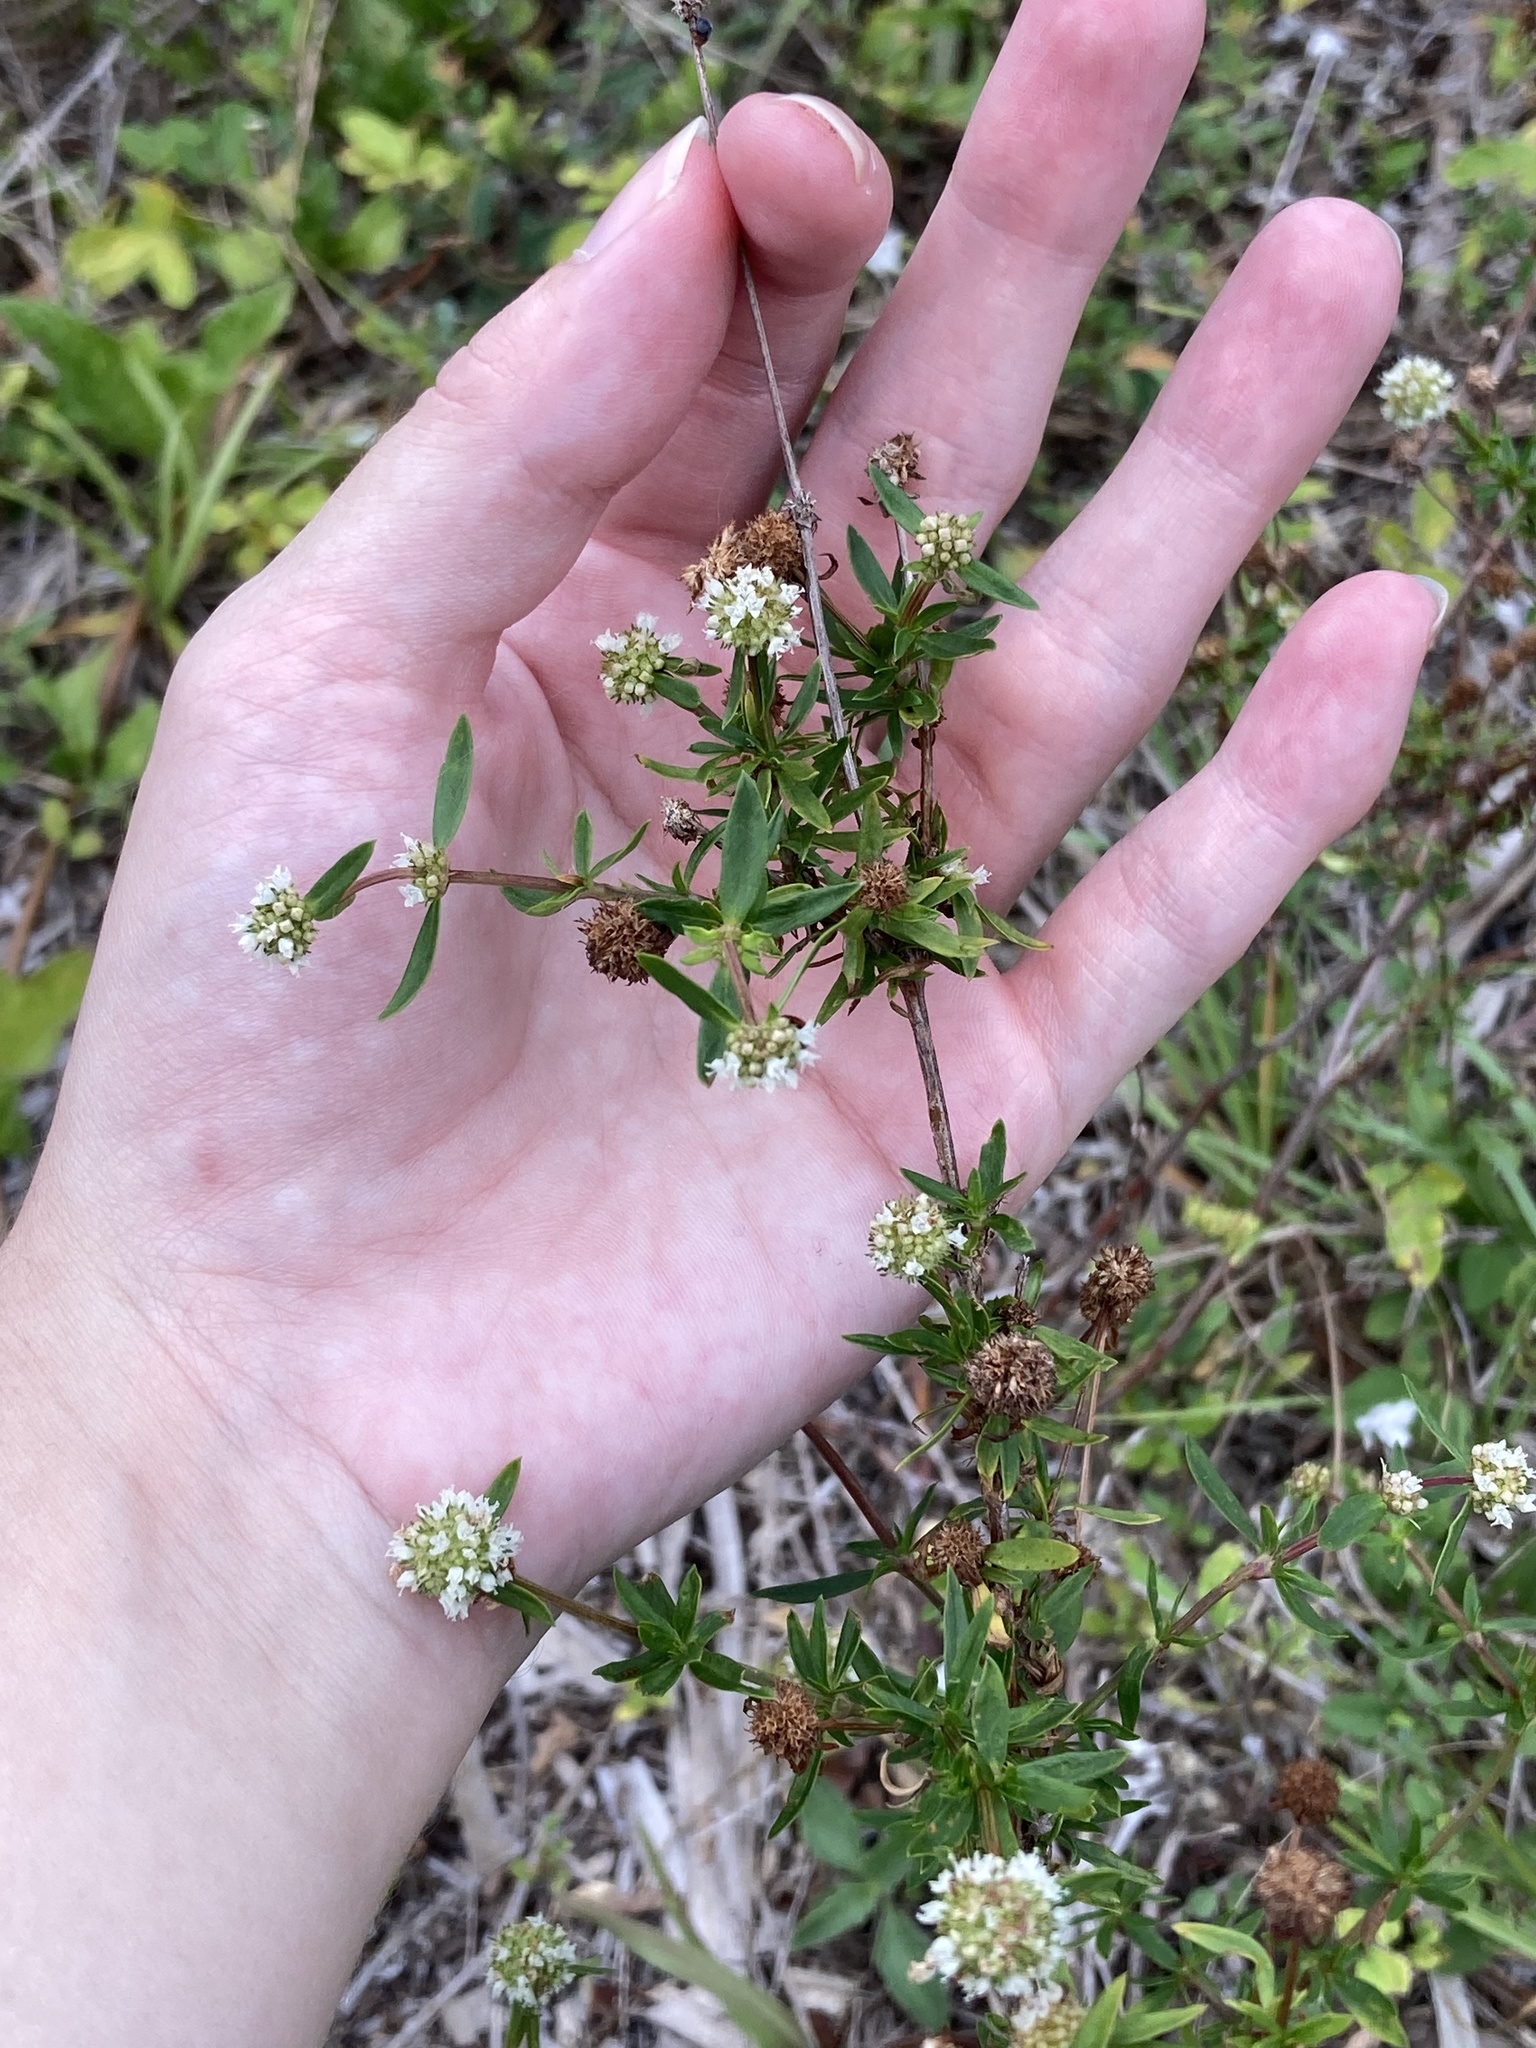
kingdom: Plantae
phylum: Tracheophyta
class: Magnoliopsida
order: Gentianales
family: Rubiaceae
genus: Spermacoce
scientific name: Spermacoce verticillata
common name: Shrubby false buttonweed
